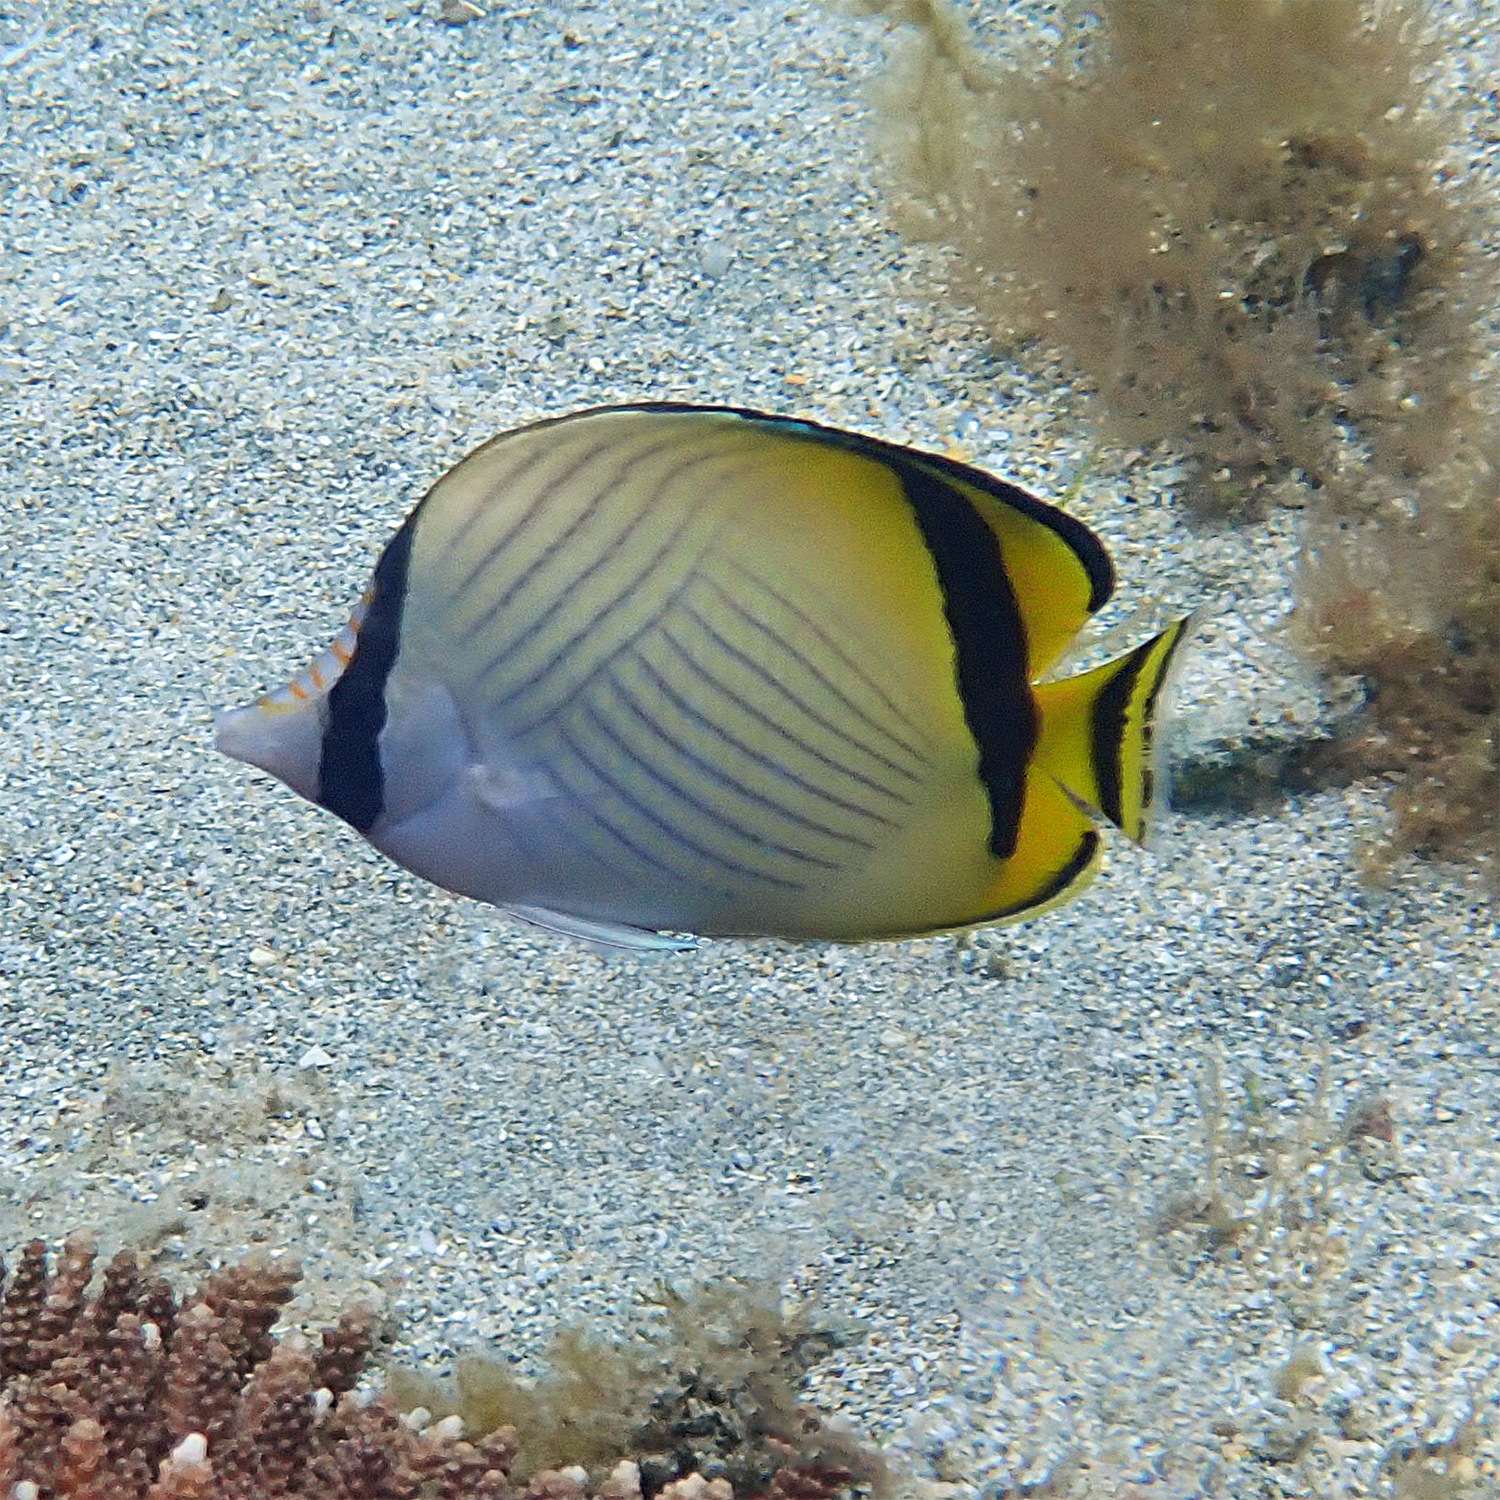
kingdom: Animalia
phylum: Chordata
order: Perciformes
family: Chaetodontidae
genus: Chaetodon
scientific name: Chaetodon vagabundus
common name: Vagabond butterflyfish
